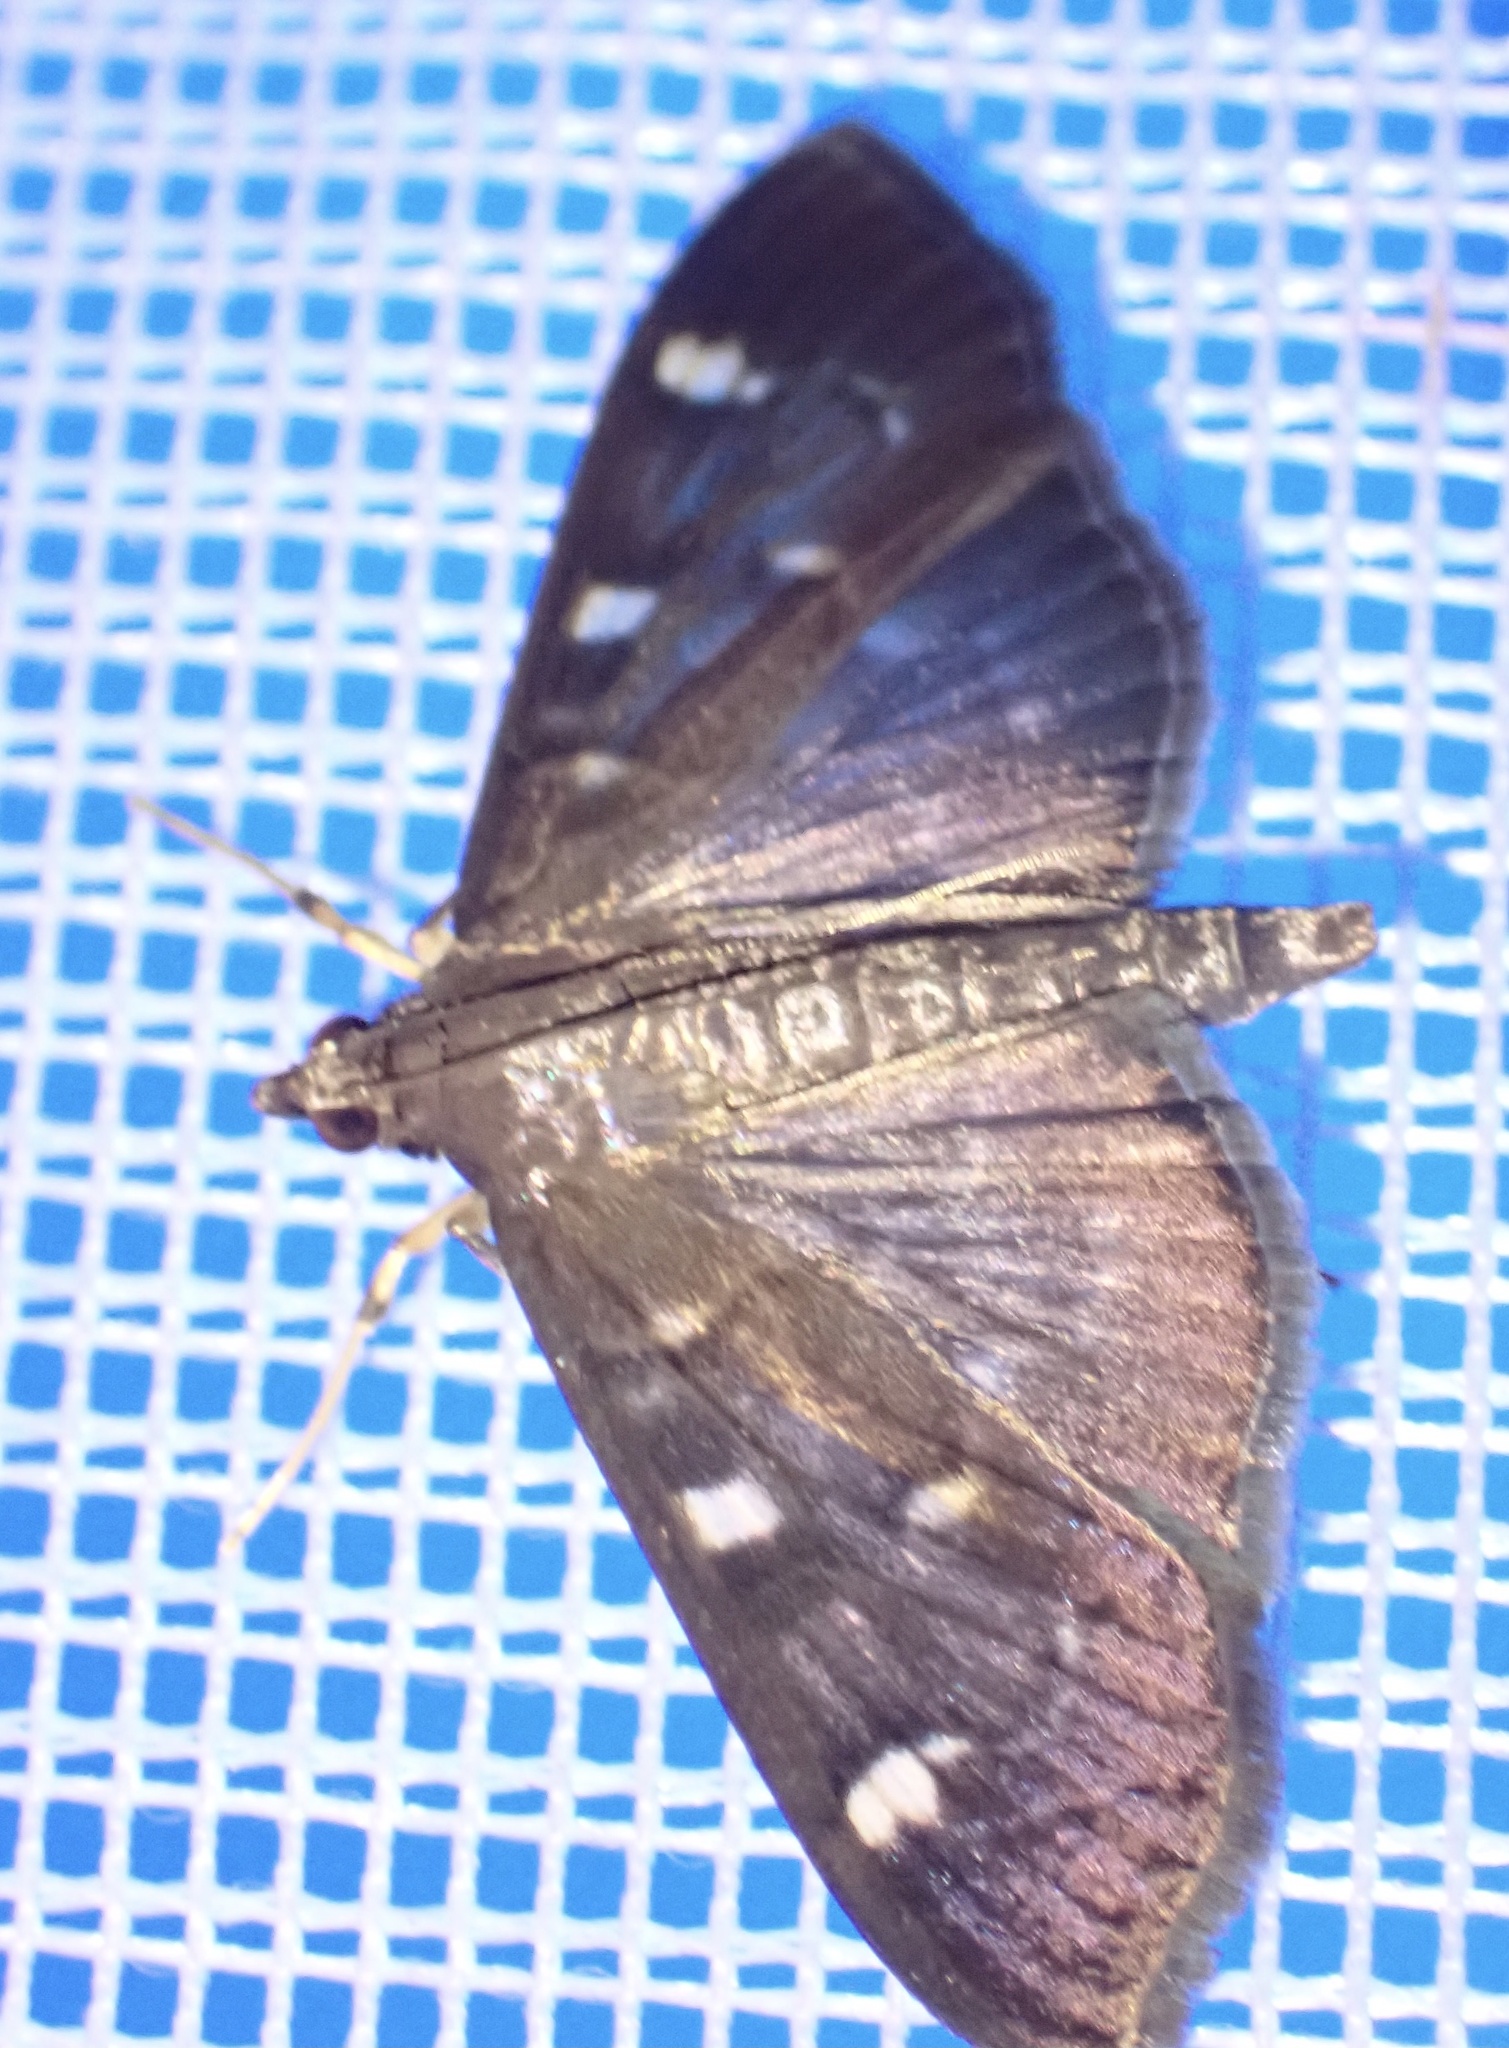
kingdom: Animalia
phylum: Arthropoda
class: Insecta
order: Lepidoptera
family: Crambidae
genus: Syllepte
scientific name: Syllepte ovialis
